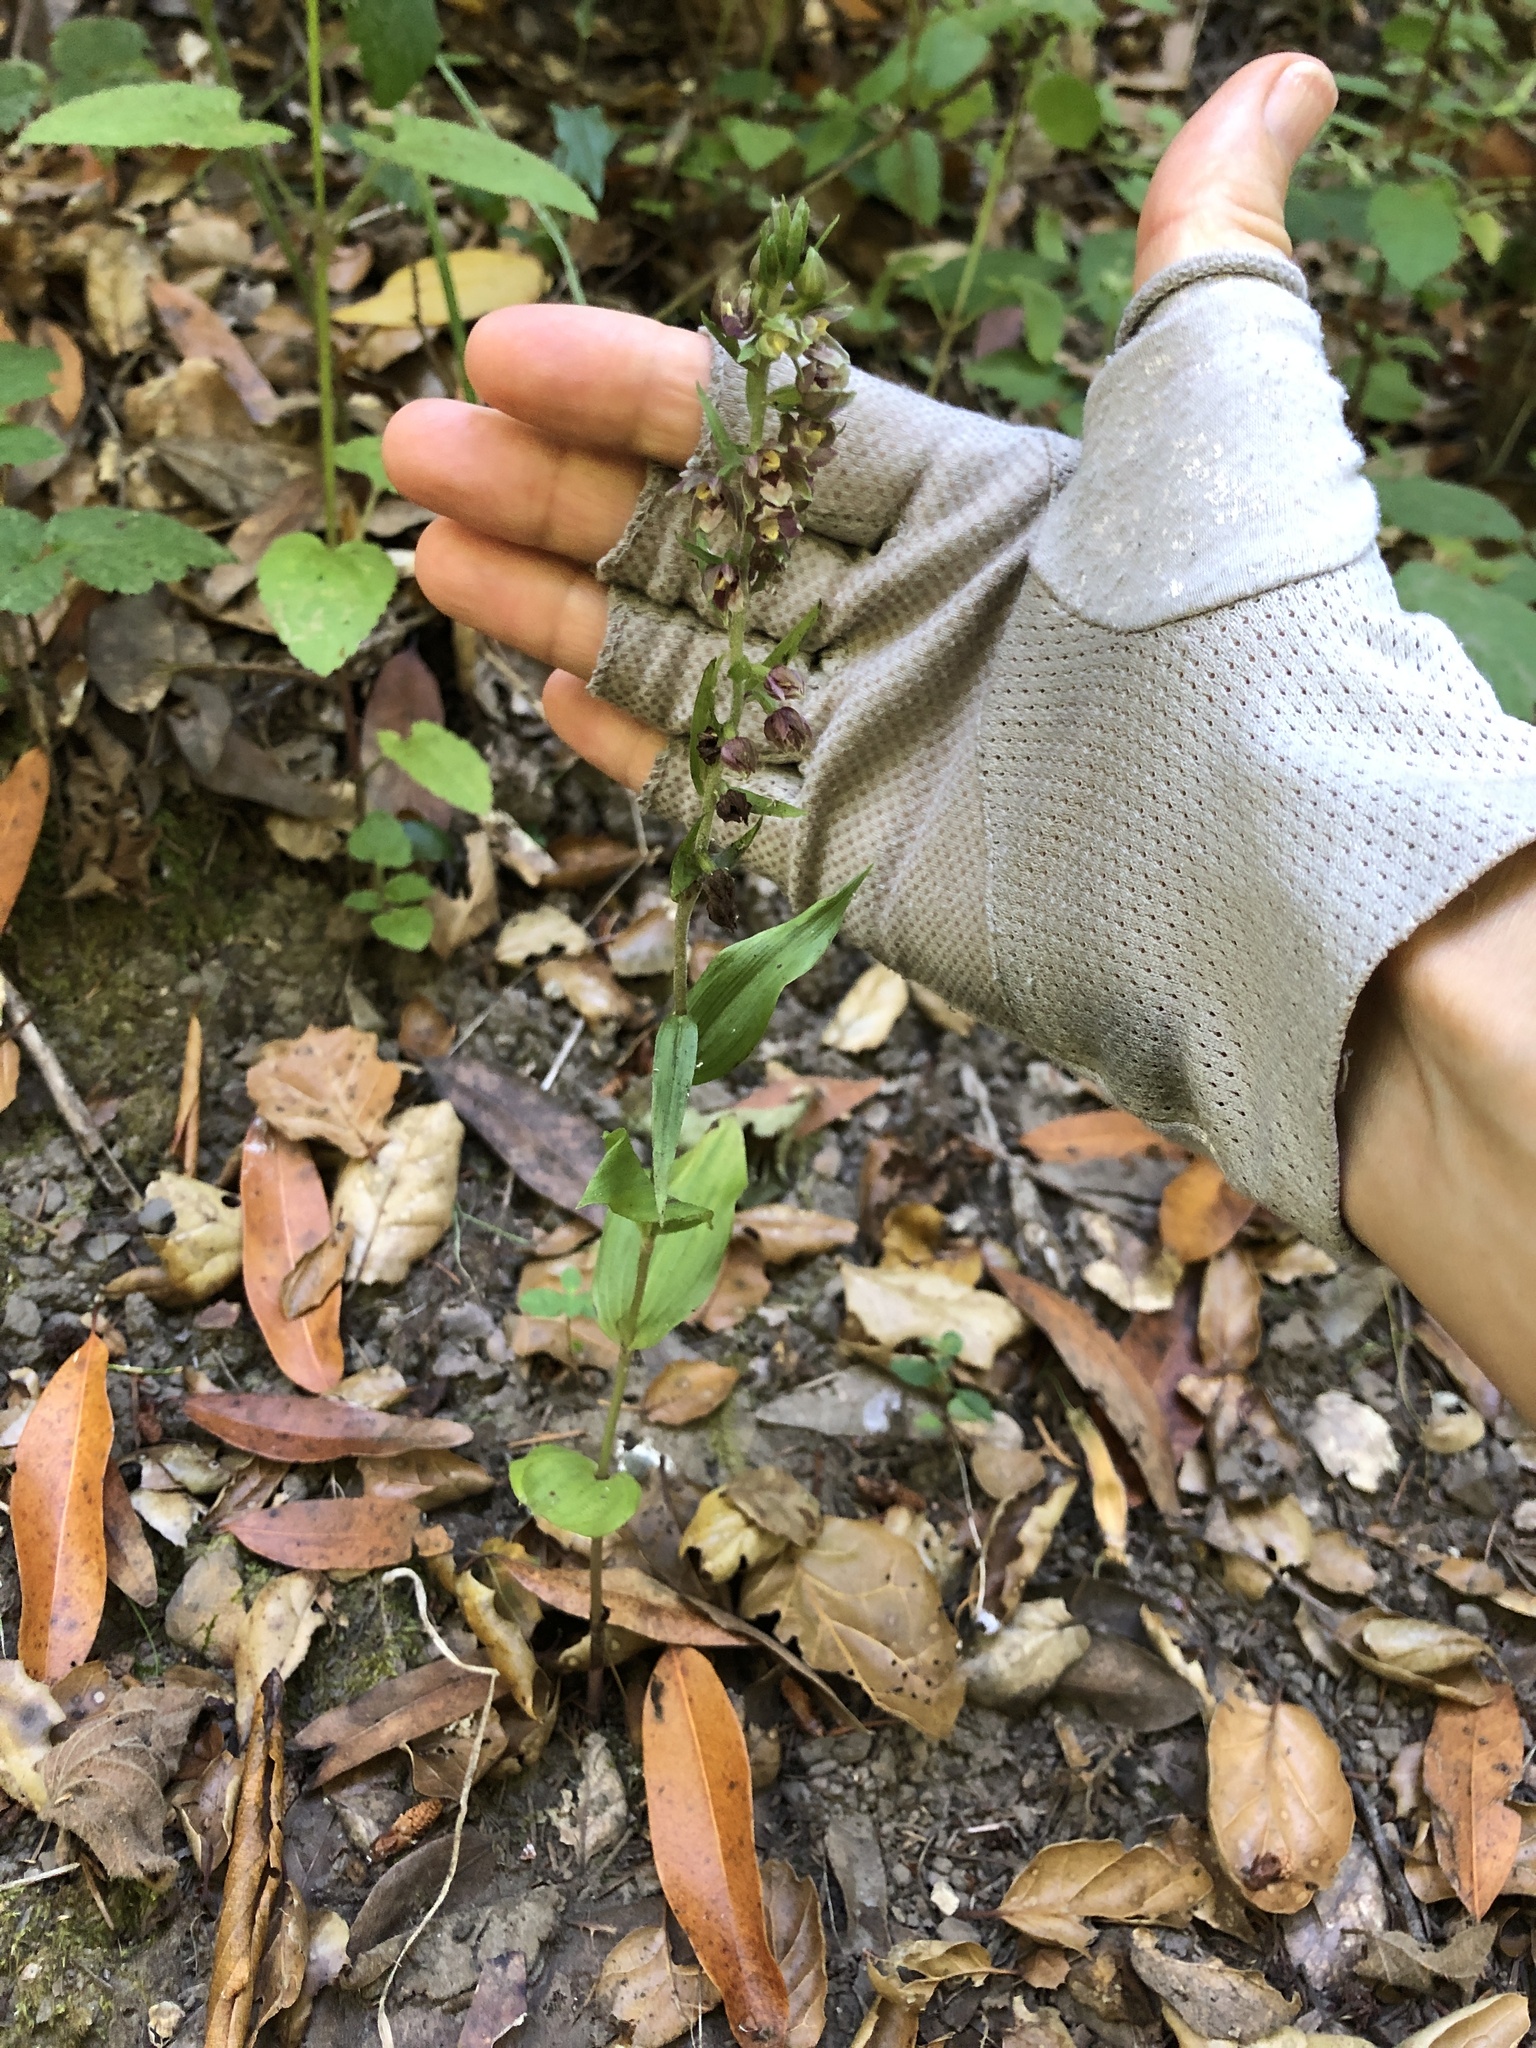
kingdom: Plantae
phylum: Tracheophyta
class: Liliopsida
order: Asparagales
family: Orchidaceae
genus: Epipactis
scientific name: Epipactis helleborine
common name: Broad-leaved helleborine
